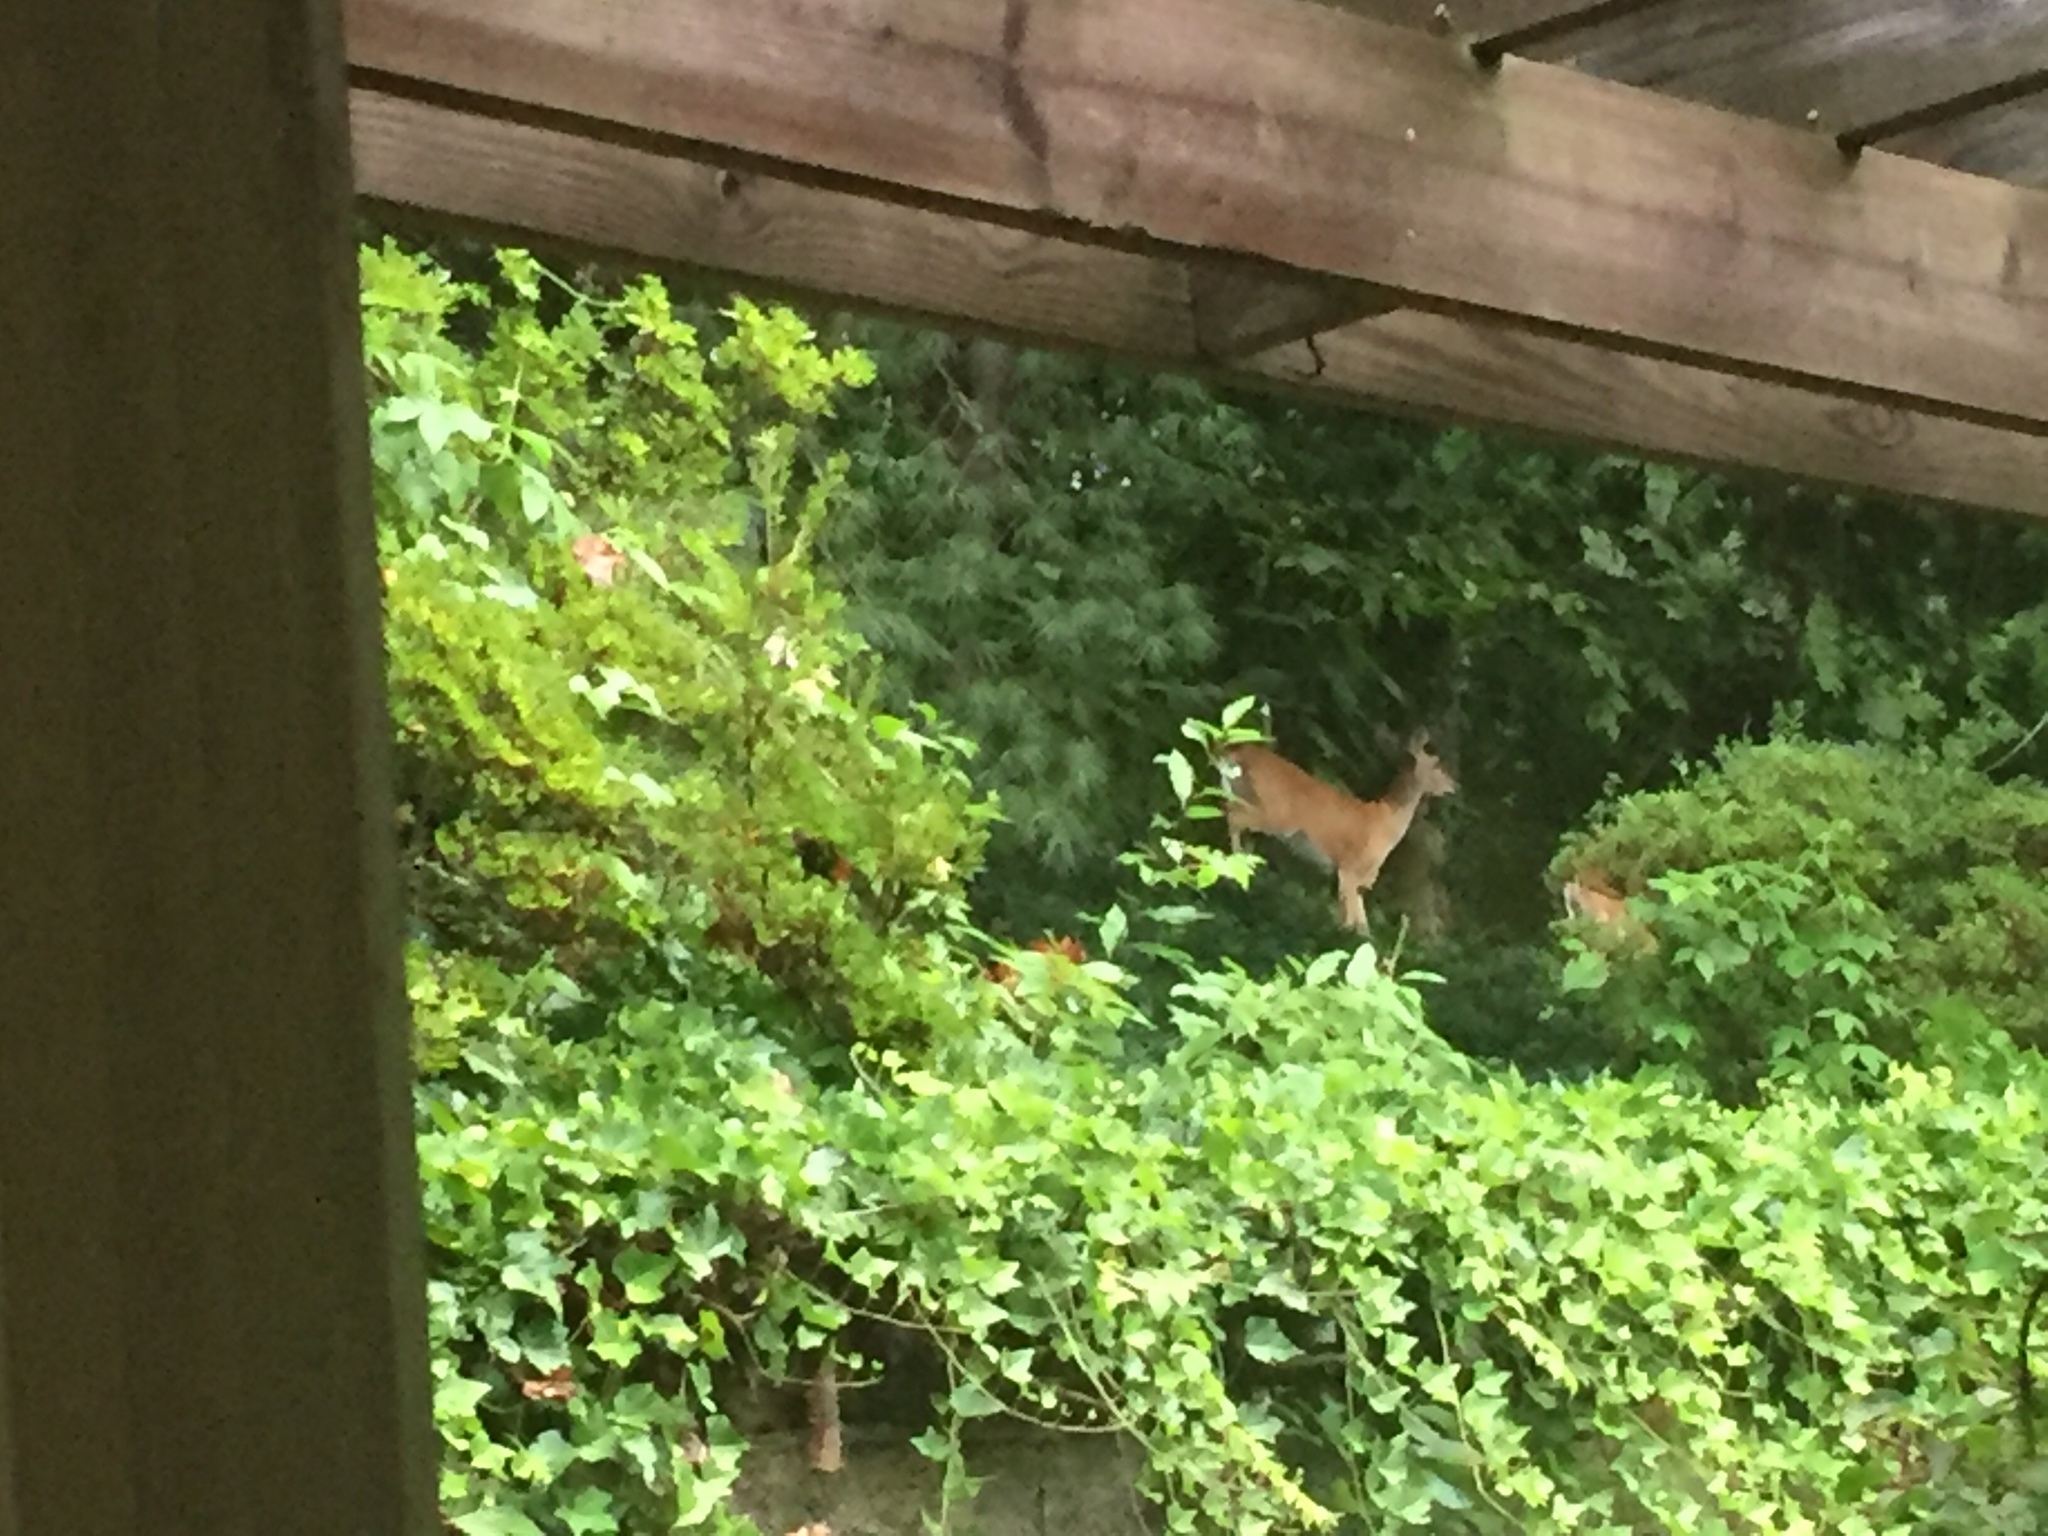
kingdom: Animalia
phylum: Chordata
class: Mammalia
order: Artiodactyla
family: Cervidae
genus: Odocoileus
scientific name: Odocoileus virginianus
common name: White-tailed deer
